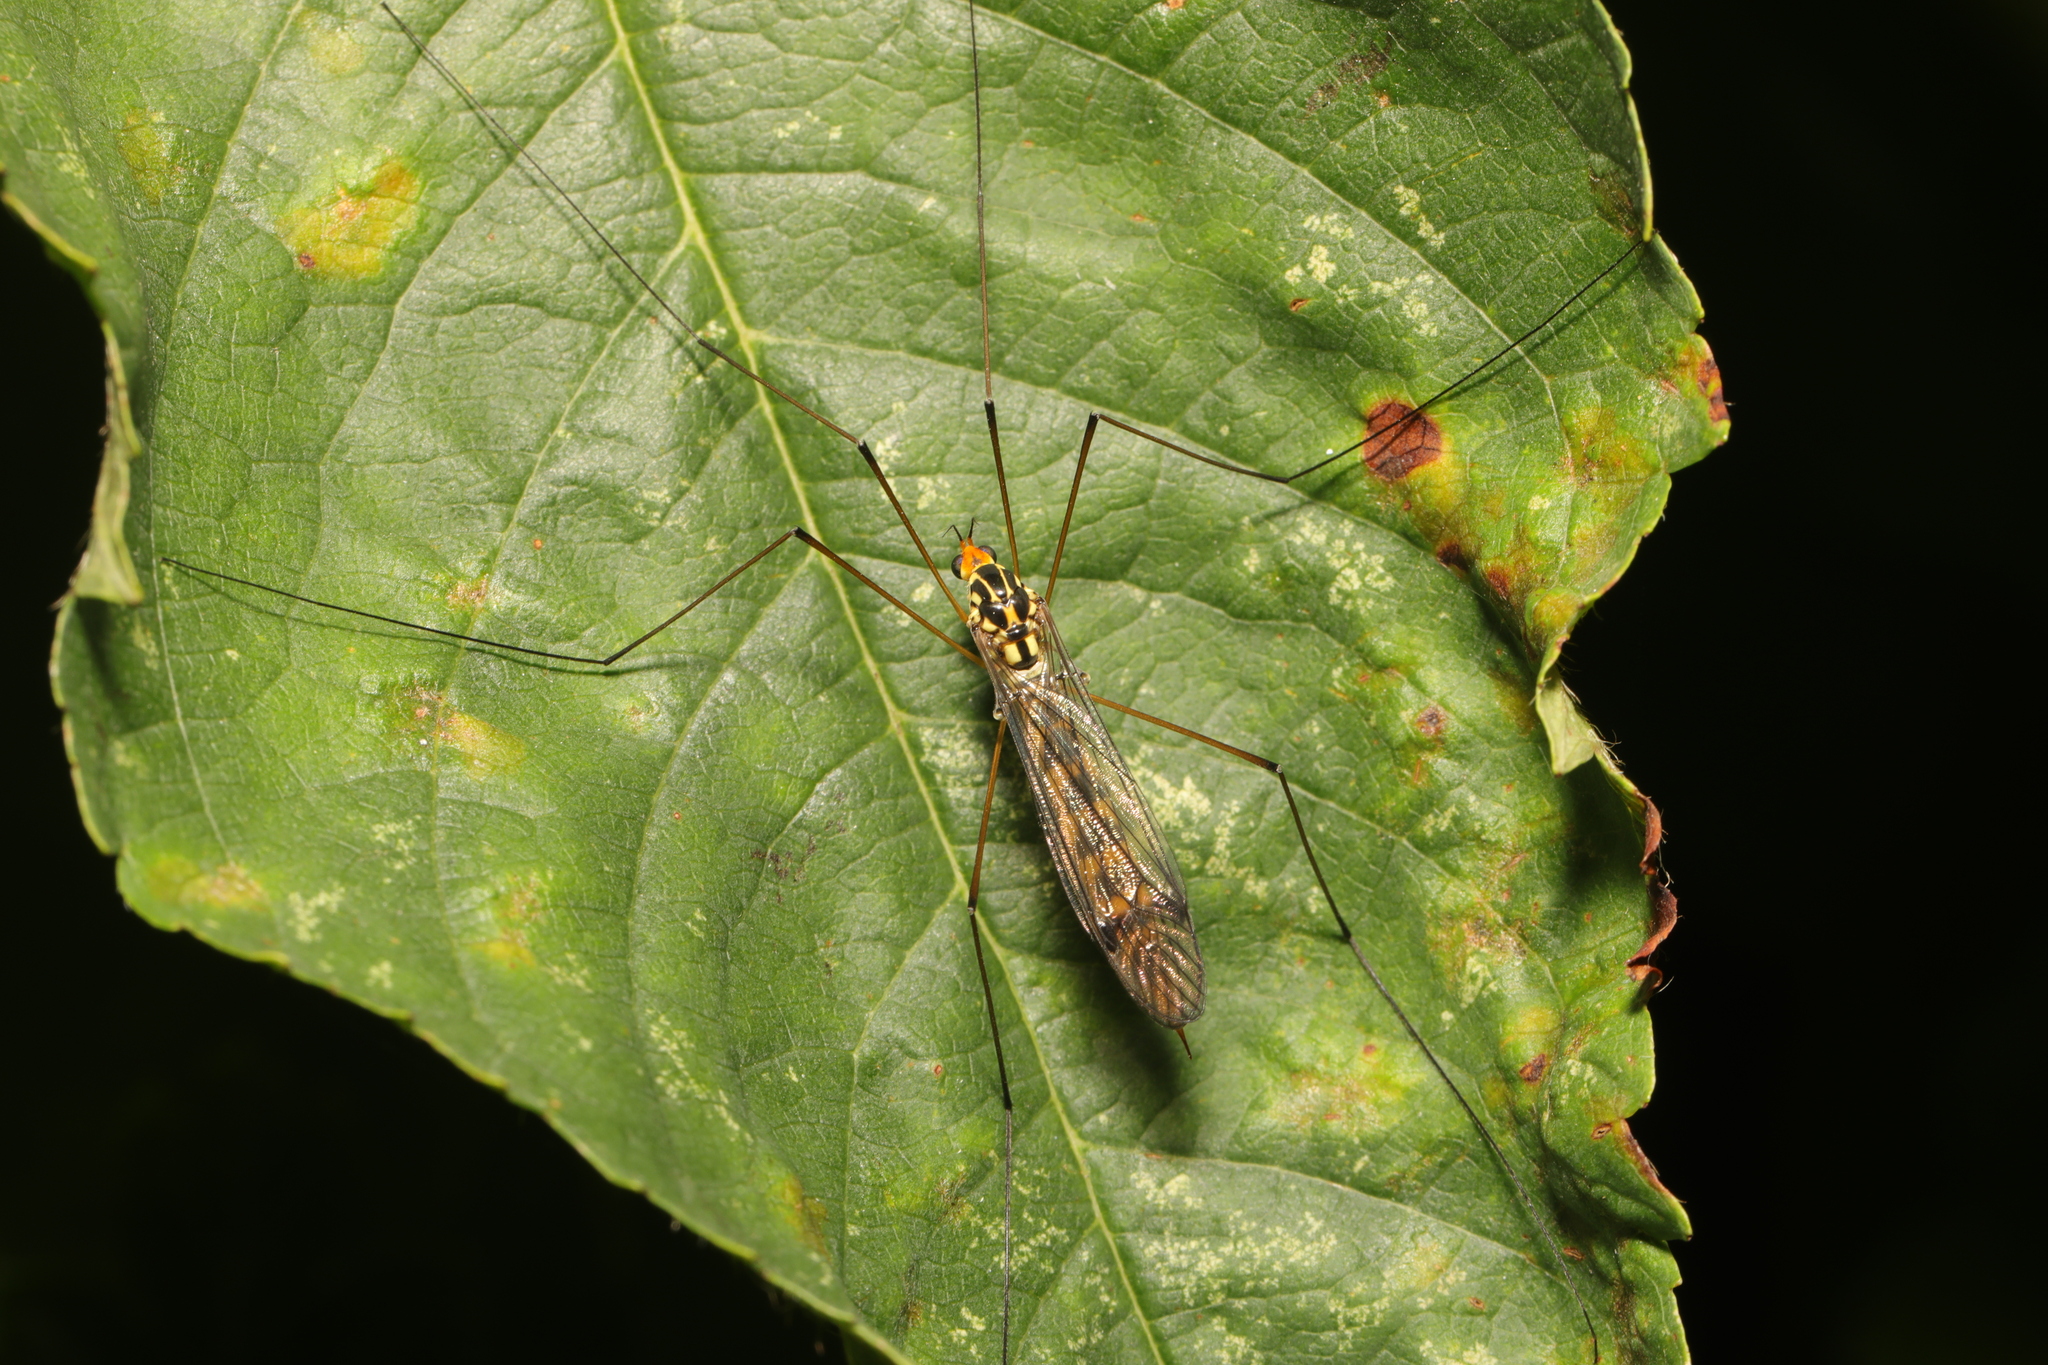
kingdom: Animalia
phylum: Arthropoda
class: Insecta
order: Diptera
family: Tipulidae
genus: Nephrotoma
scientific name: Nephrotoma flavipalpis
